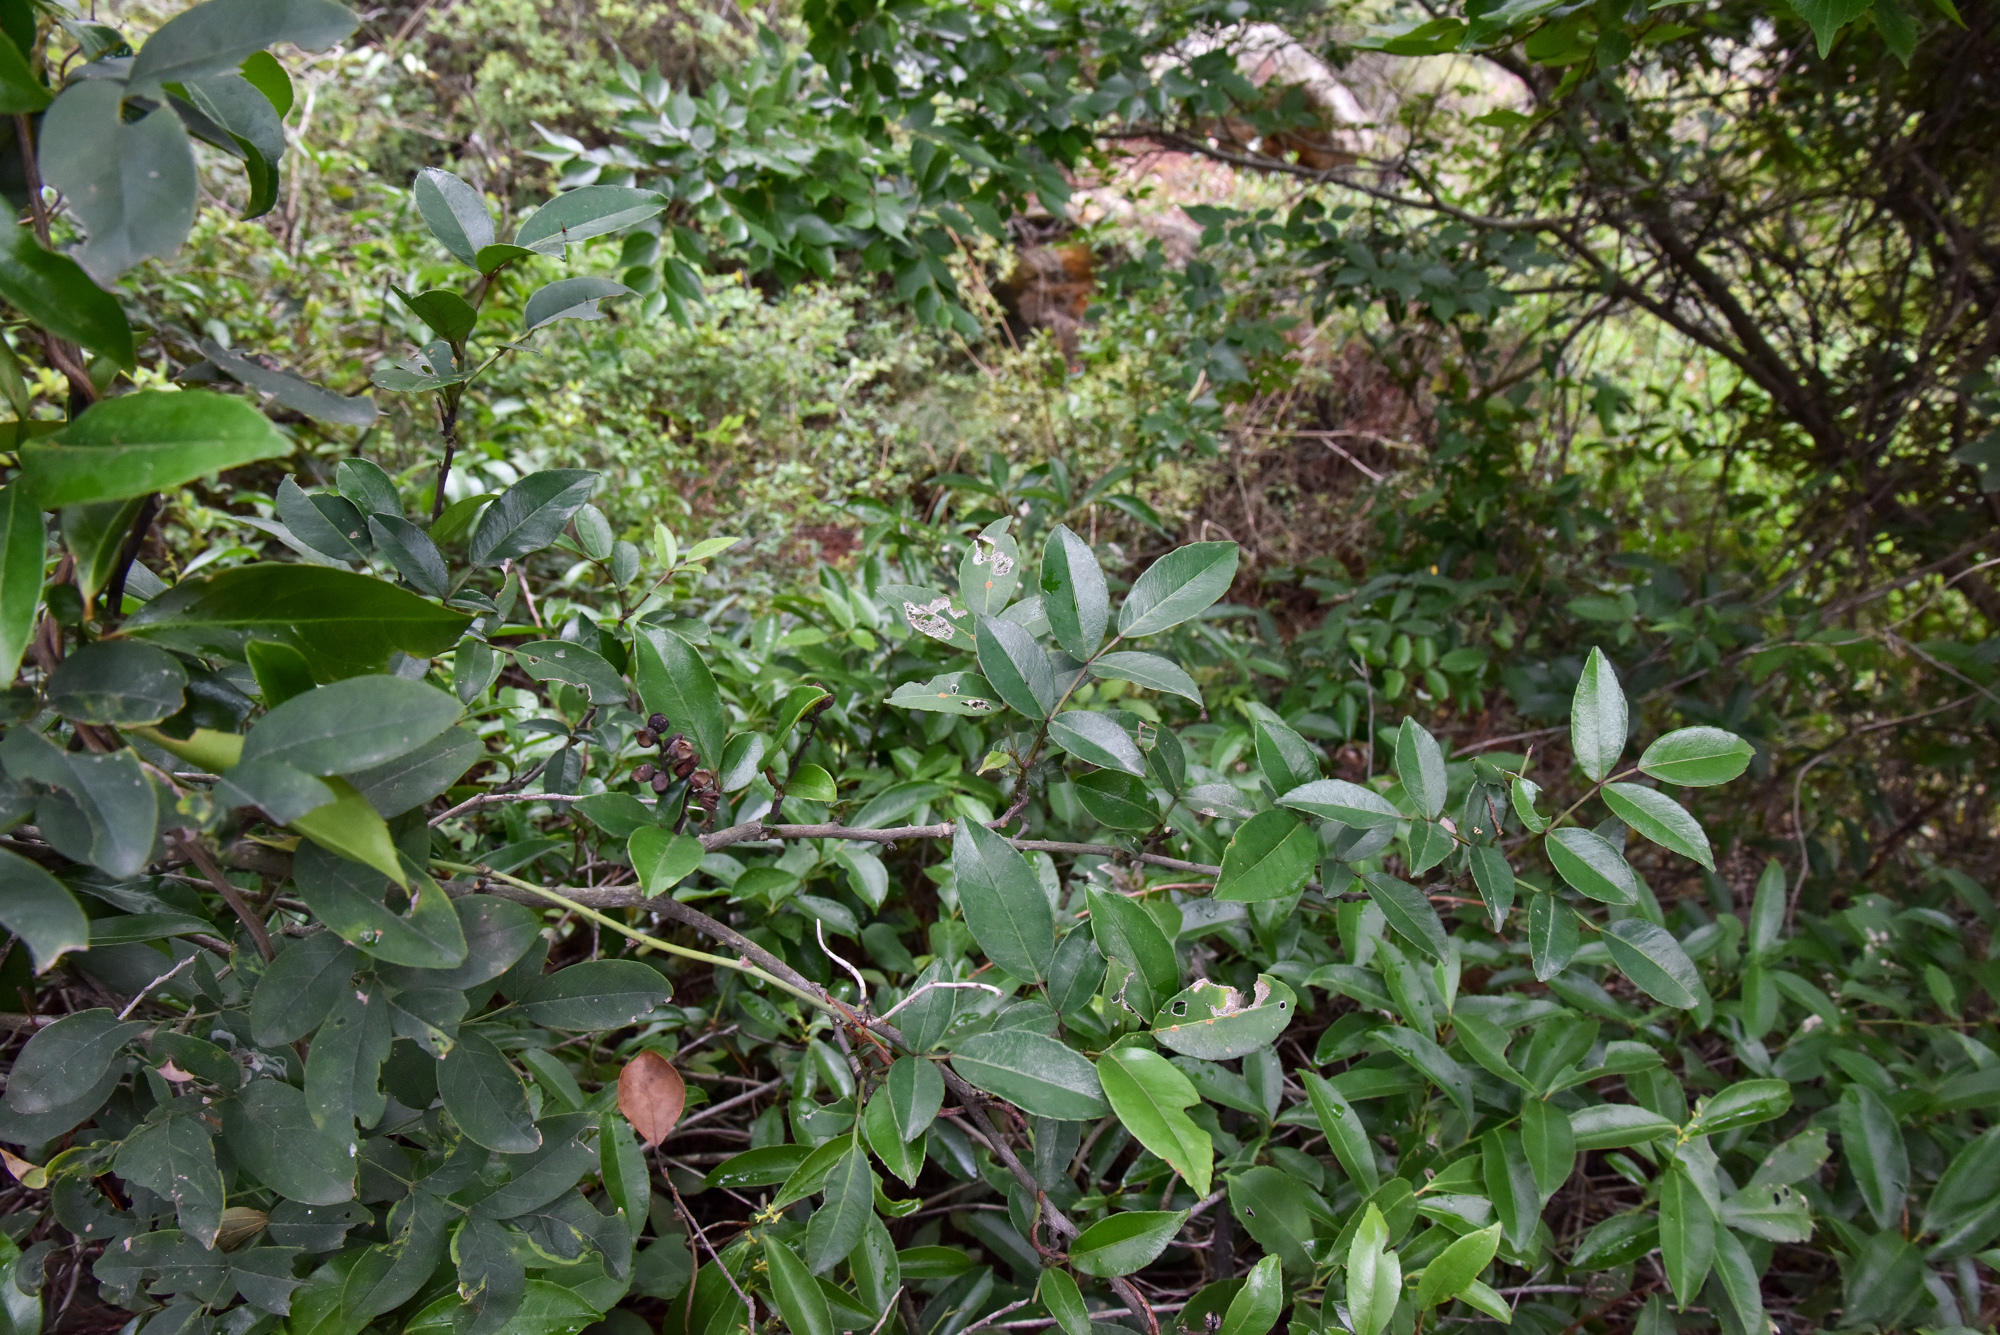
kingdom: Plantae
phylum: Tracheophyta
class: Magnoliopsida
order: Sapindales
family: Rutaceae
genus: Zanthoxylum
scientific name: Zanthoxylum nitidum
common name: Shiny-leaf prickly-ash
